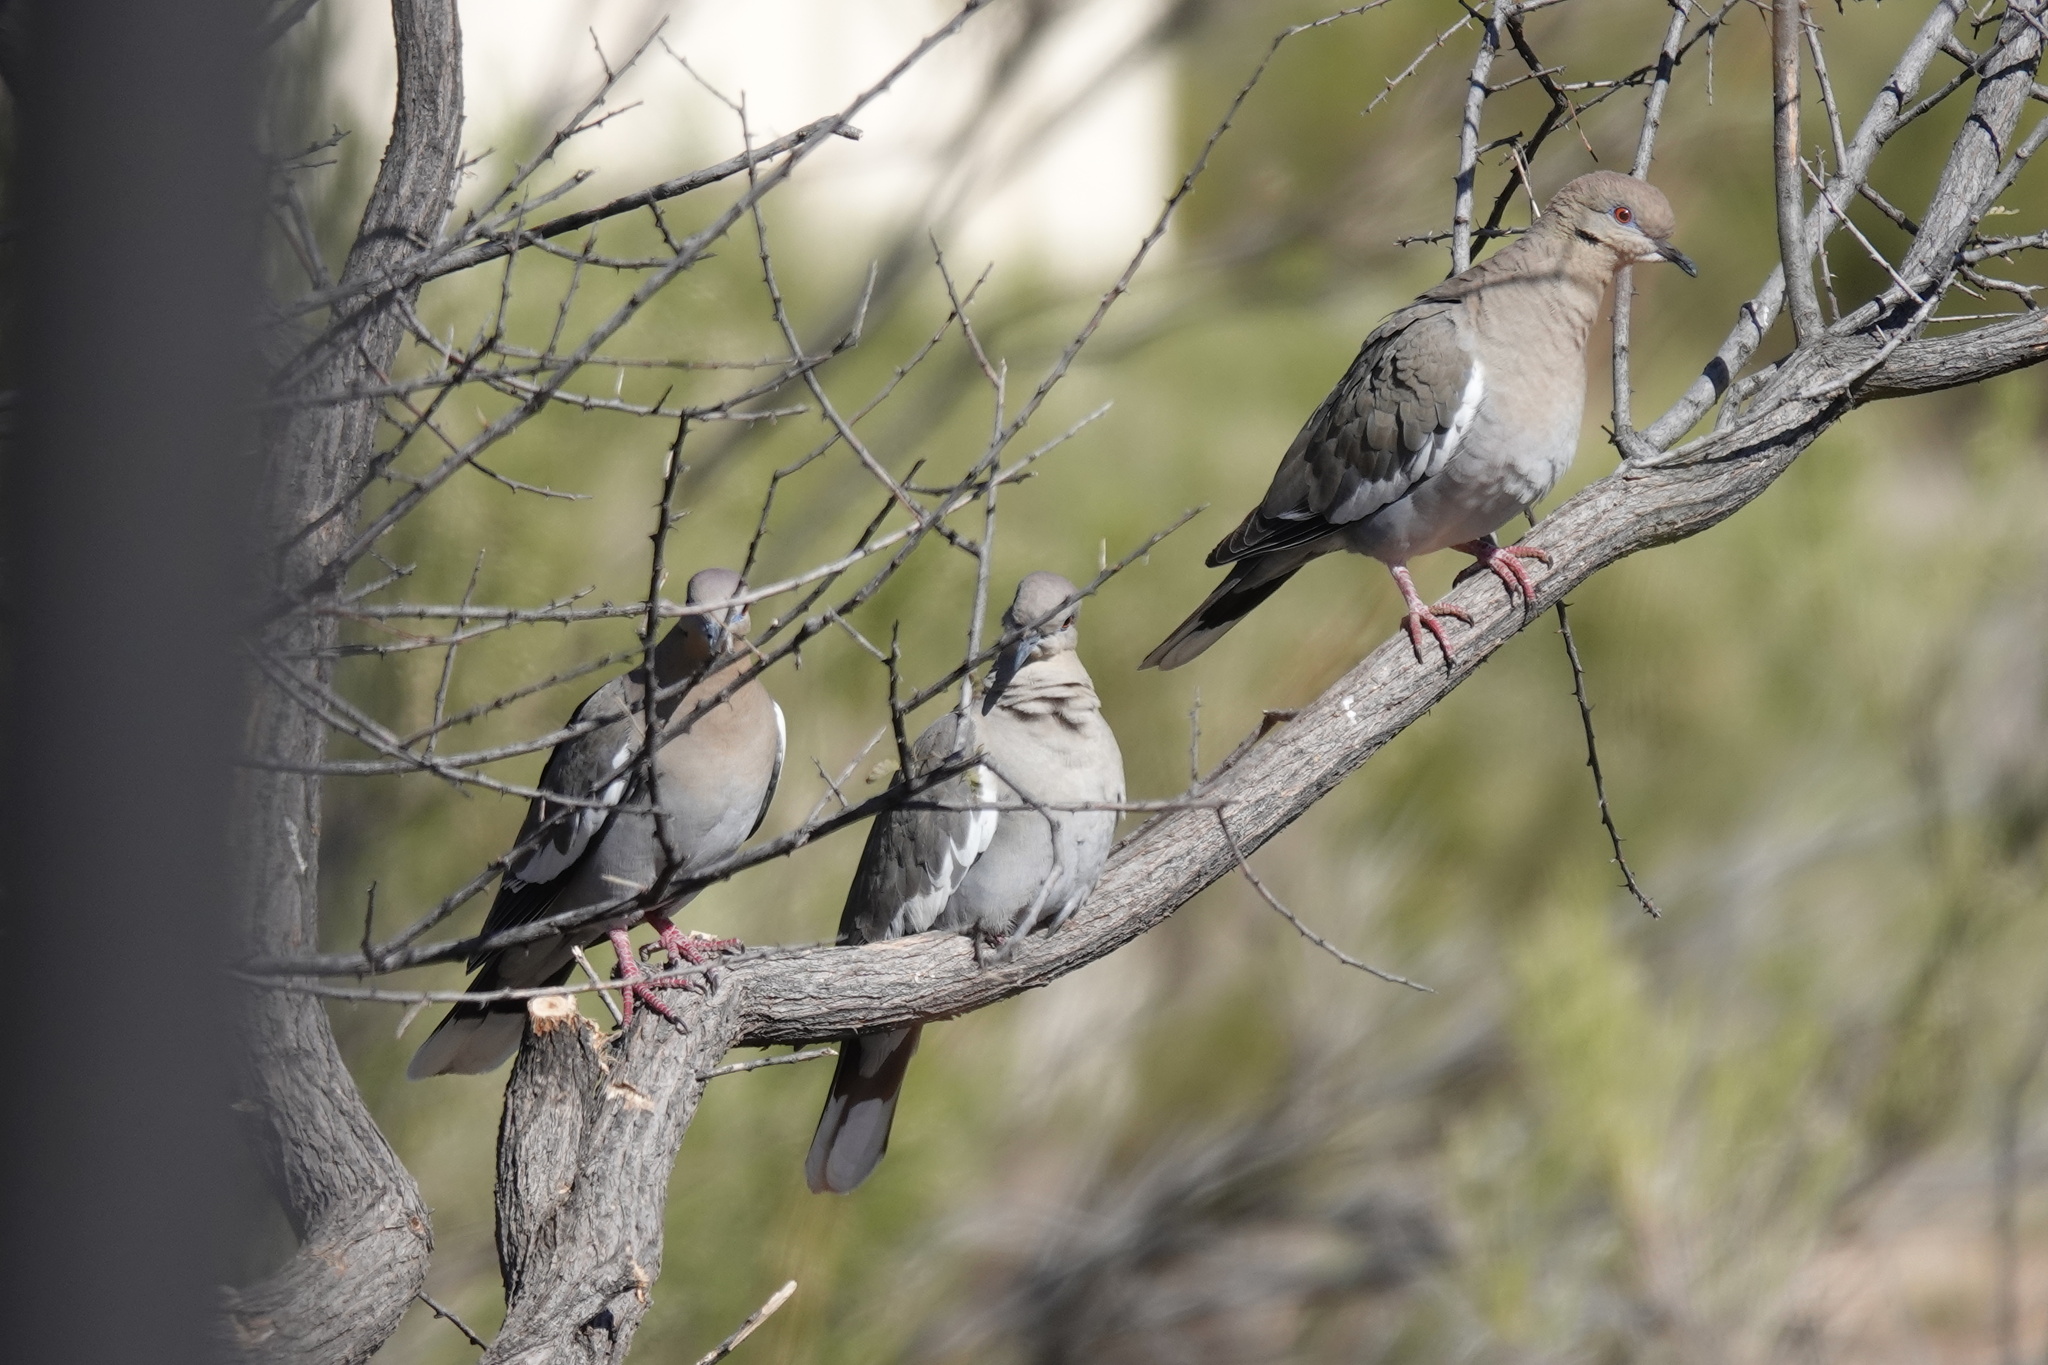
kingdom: Animalia
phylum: Chordata
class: Aves
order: Columbiformes
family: Columbidae
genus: Zenaida
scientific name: Zenaida asiatica
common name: White-winged dove
